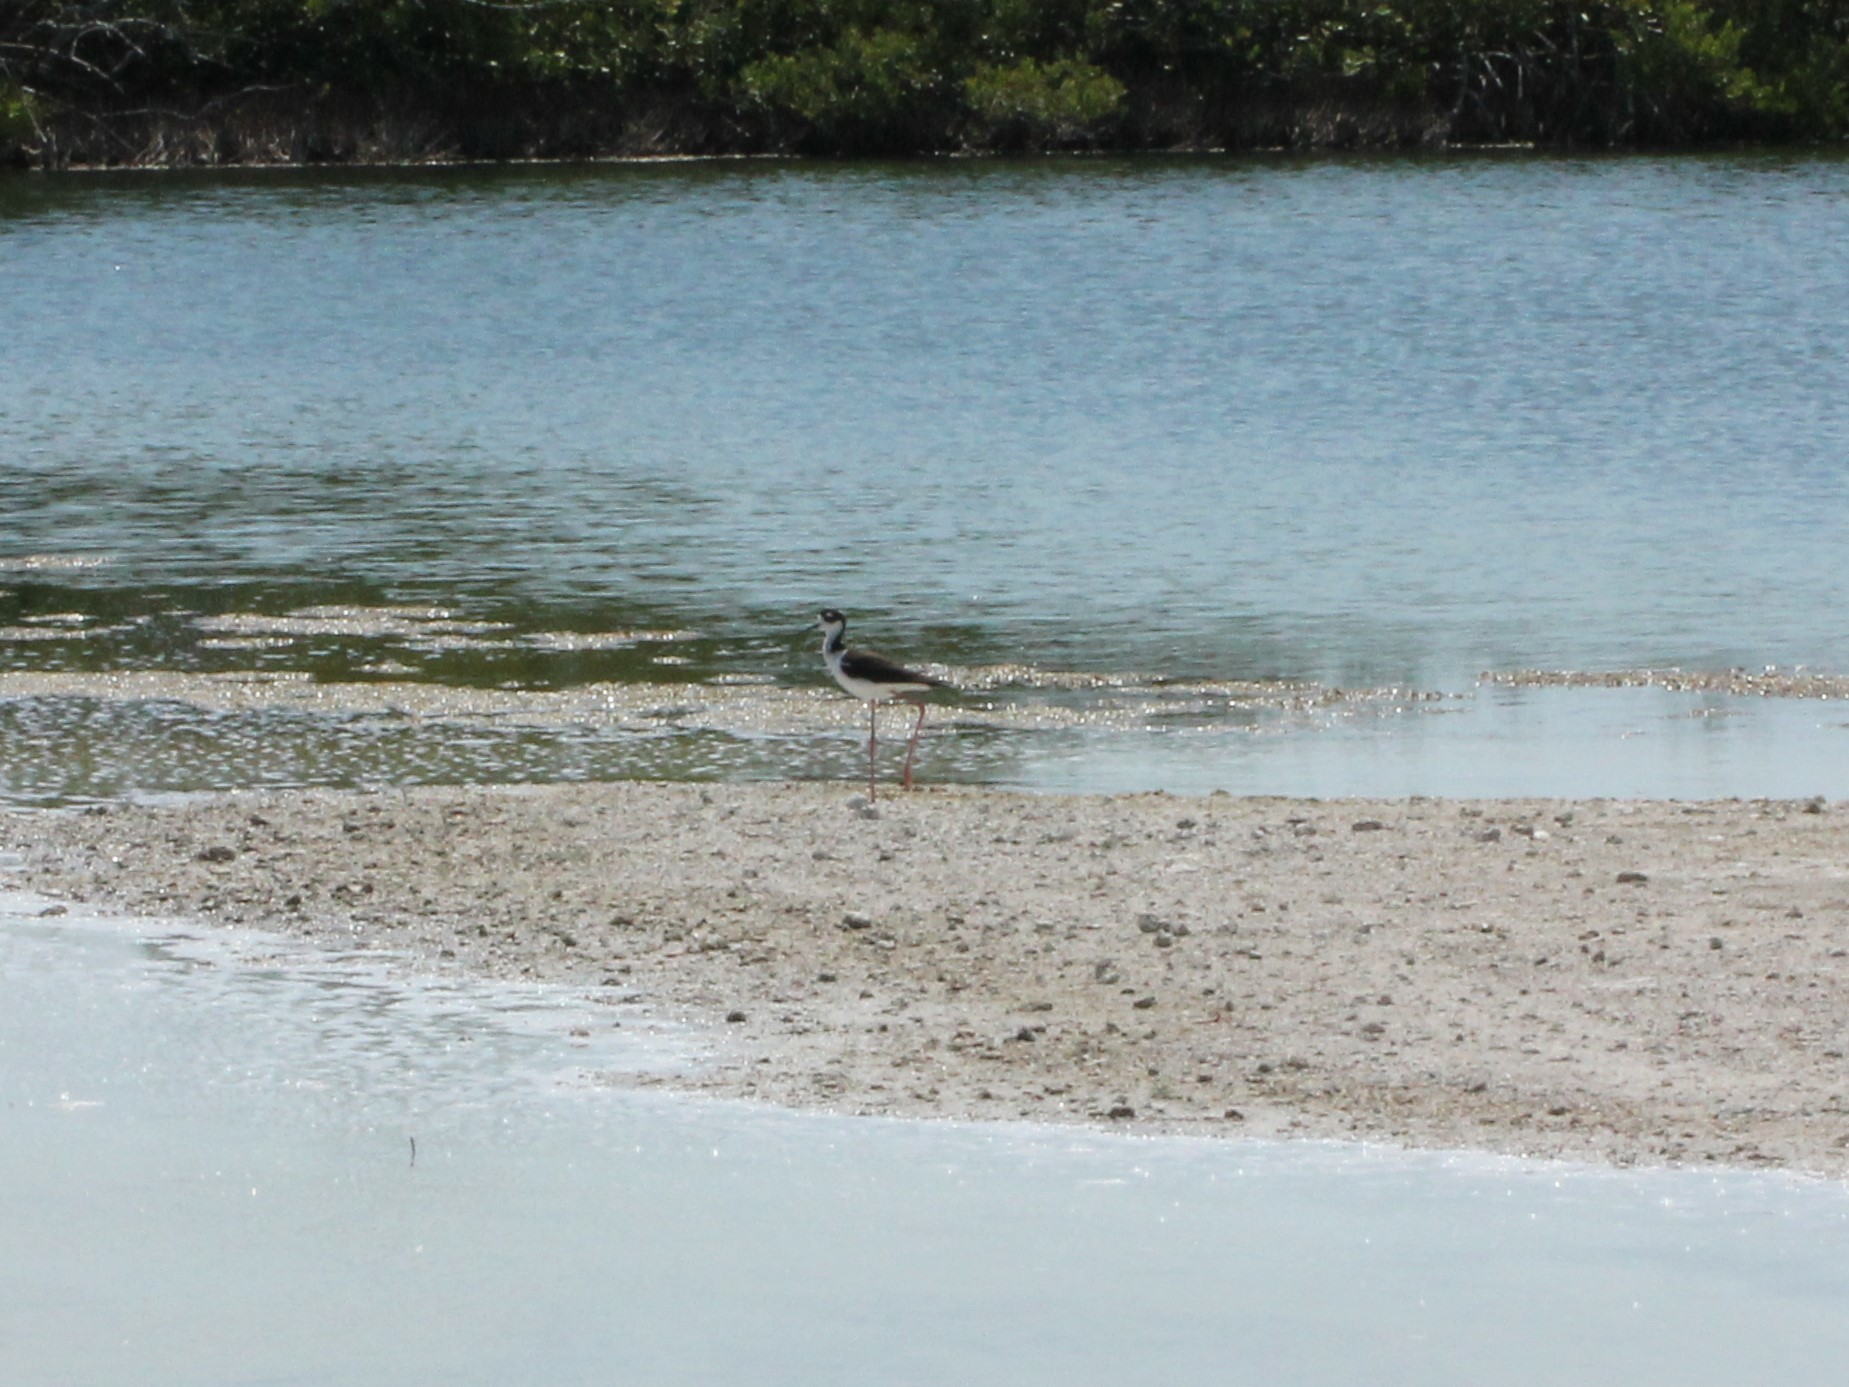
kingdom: Animalia
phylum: Chordata
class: Aves
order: Charadriiformes
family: Recurvirostridae
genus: Himantopus
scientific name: Himantopus mexicanus
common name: Black-necked stilt
